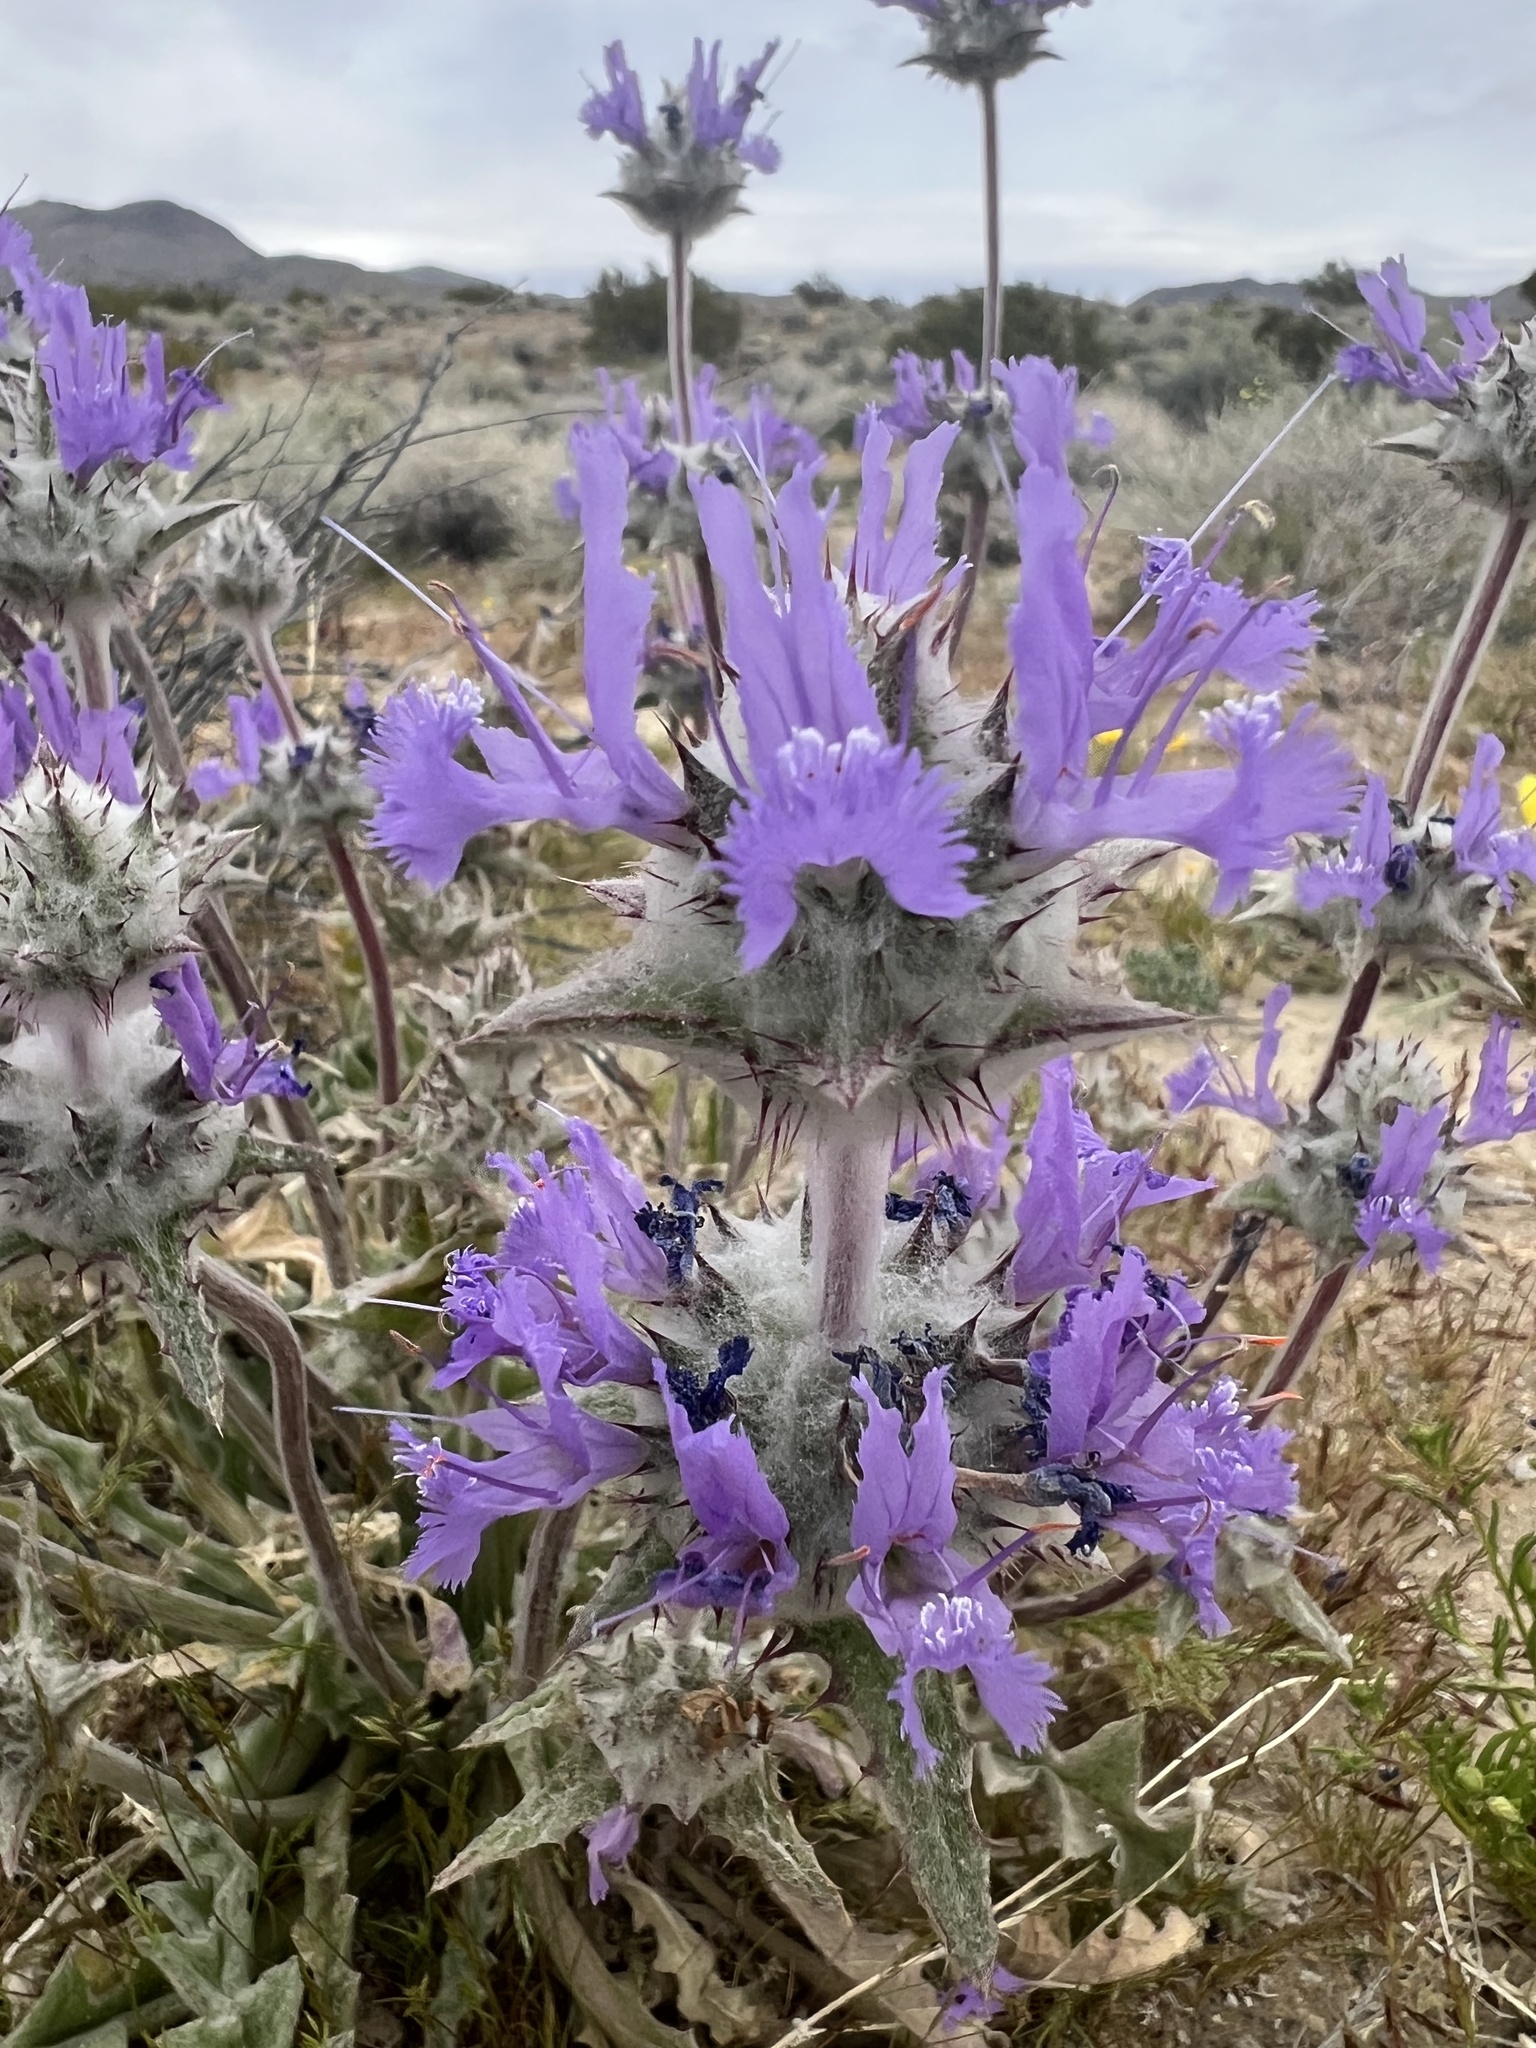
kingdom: Plantae
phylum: Tracheophyta
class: Magnoliopsida
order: Lamiales
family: Lamiaceae
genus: Salvia
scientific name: Salvia carduacea
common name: Thistle sage
